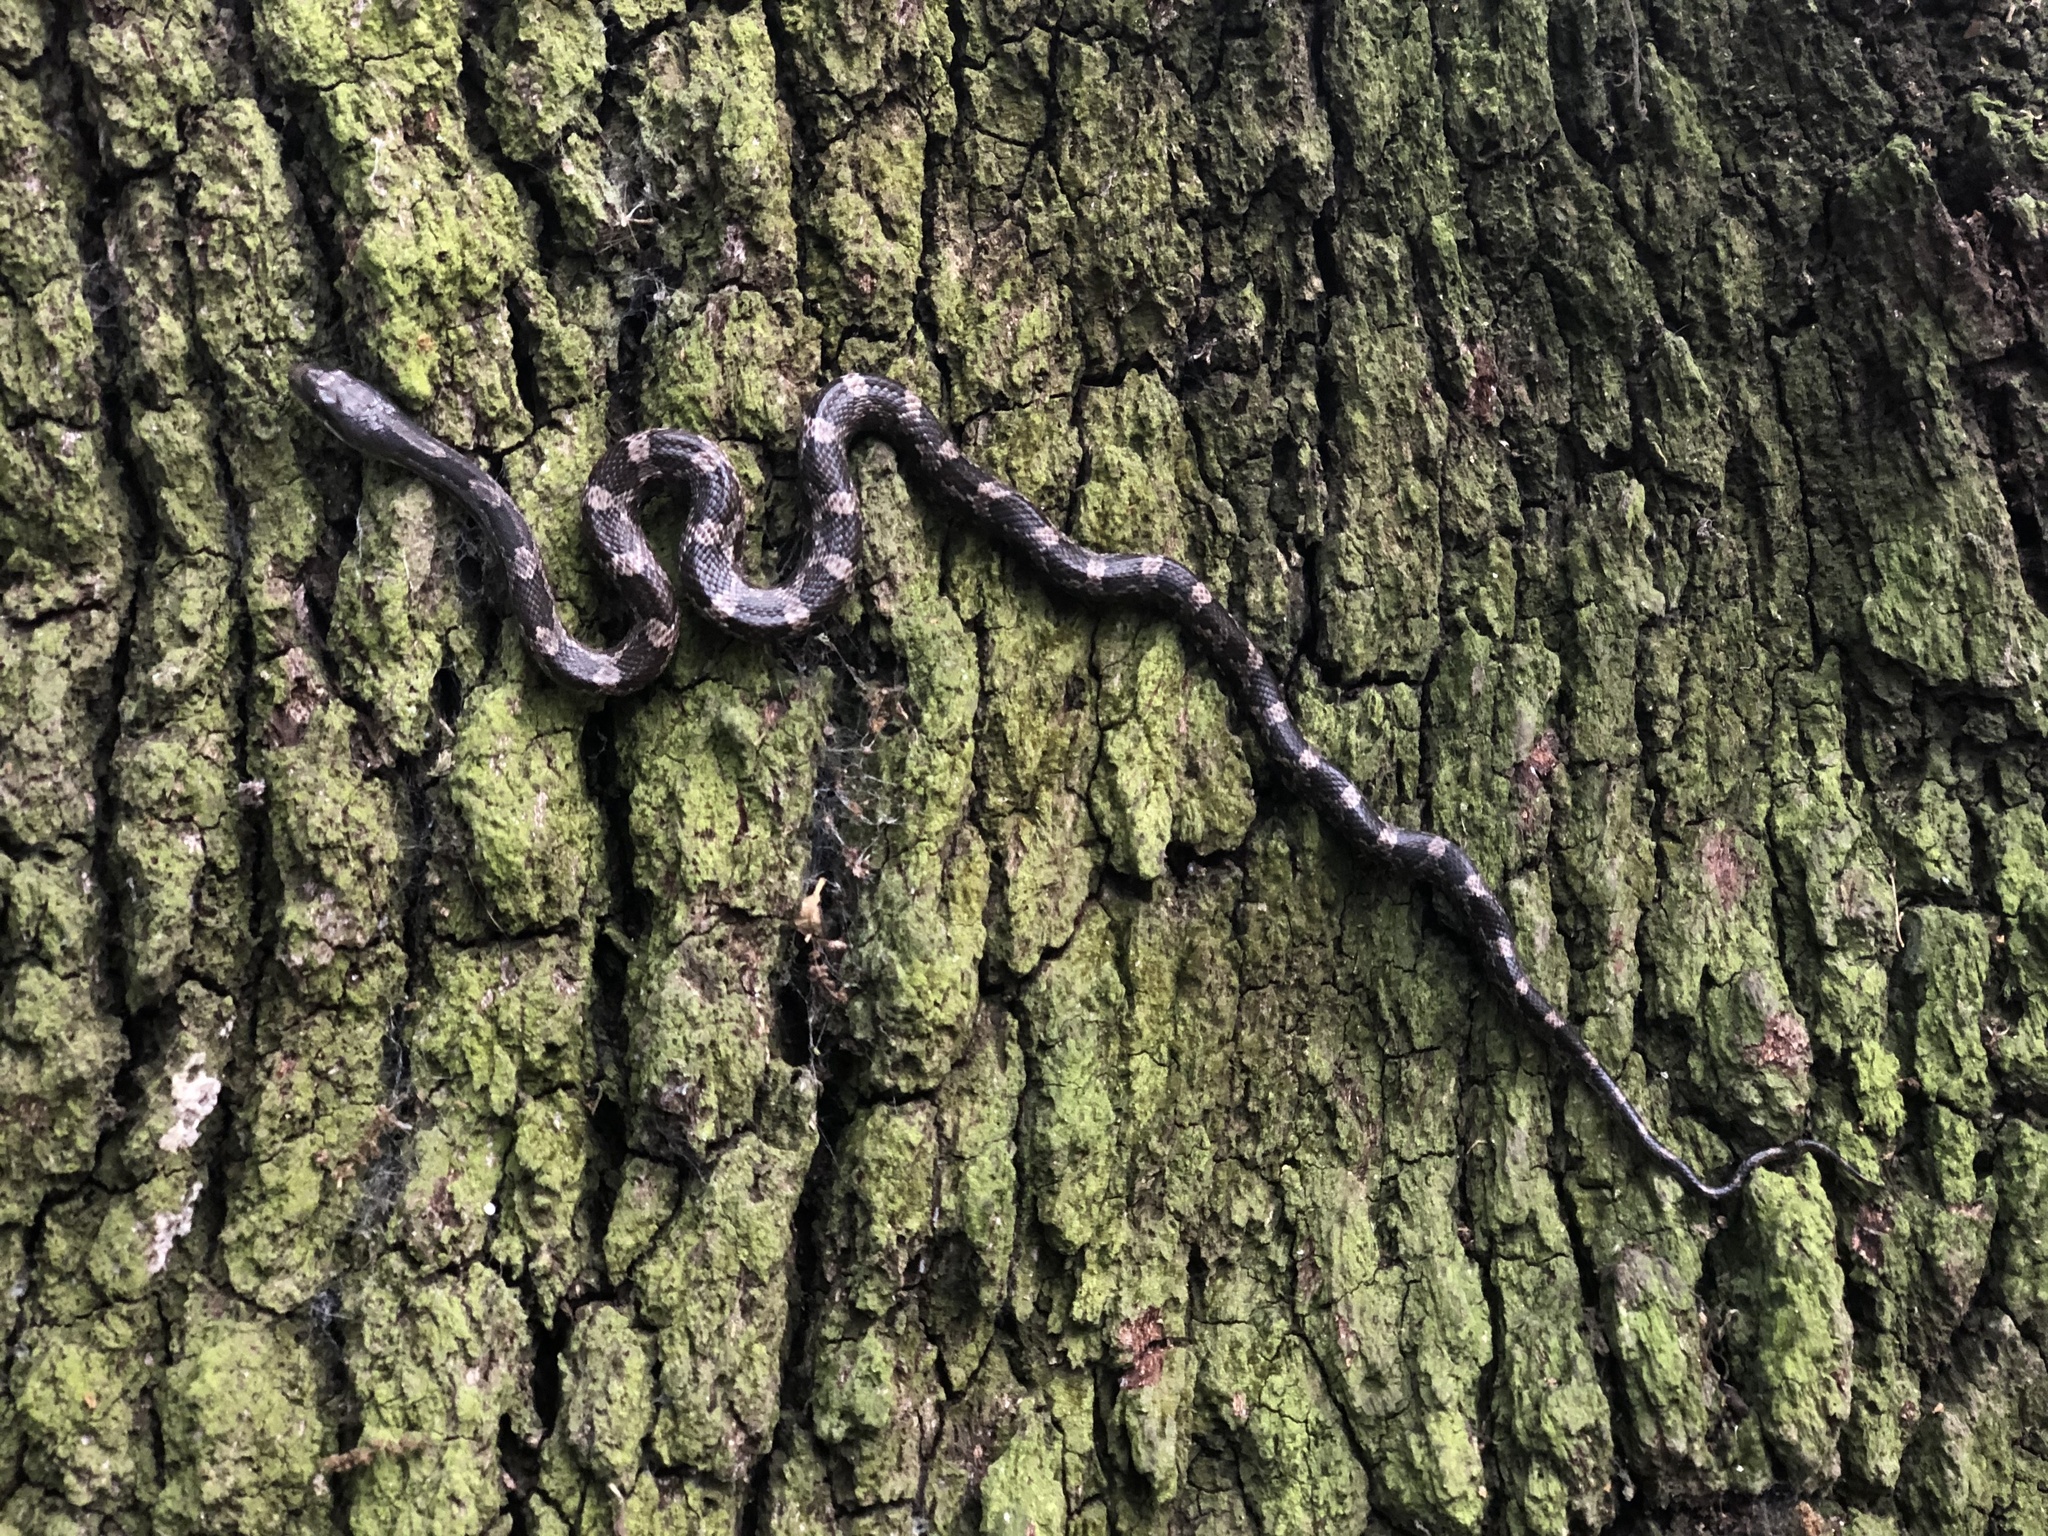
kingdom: Animalia
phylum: Chordata
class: Squamata
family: Colubridae
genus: Pantherophis
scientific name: Pantherophis obsoletus
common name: Black rat snake
